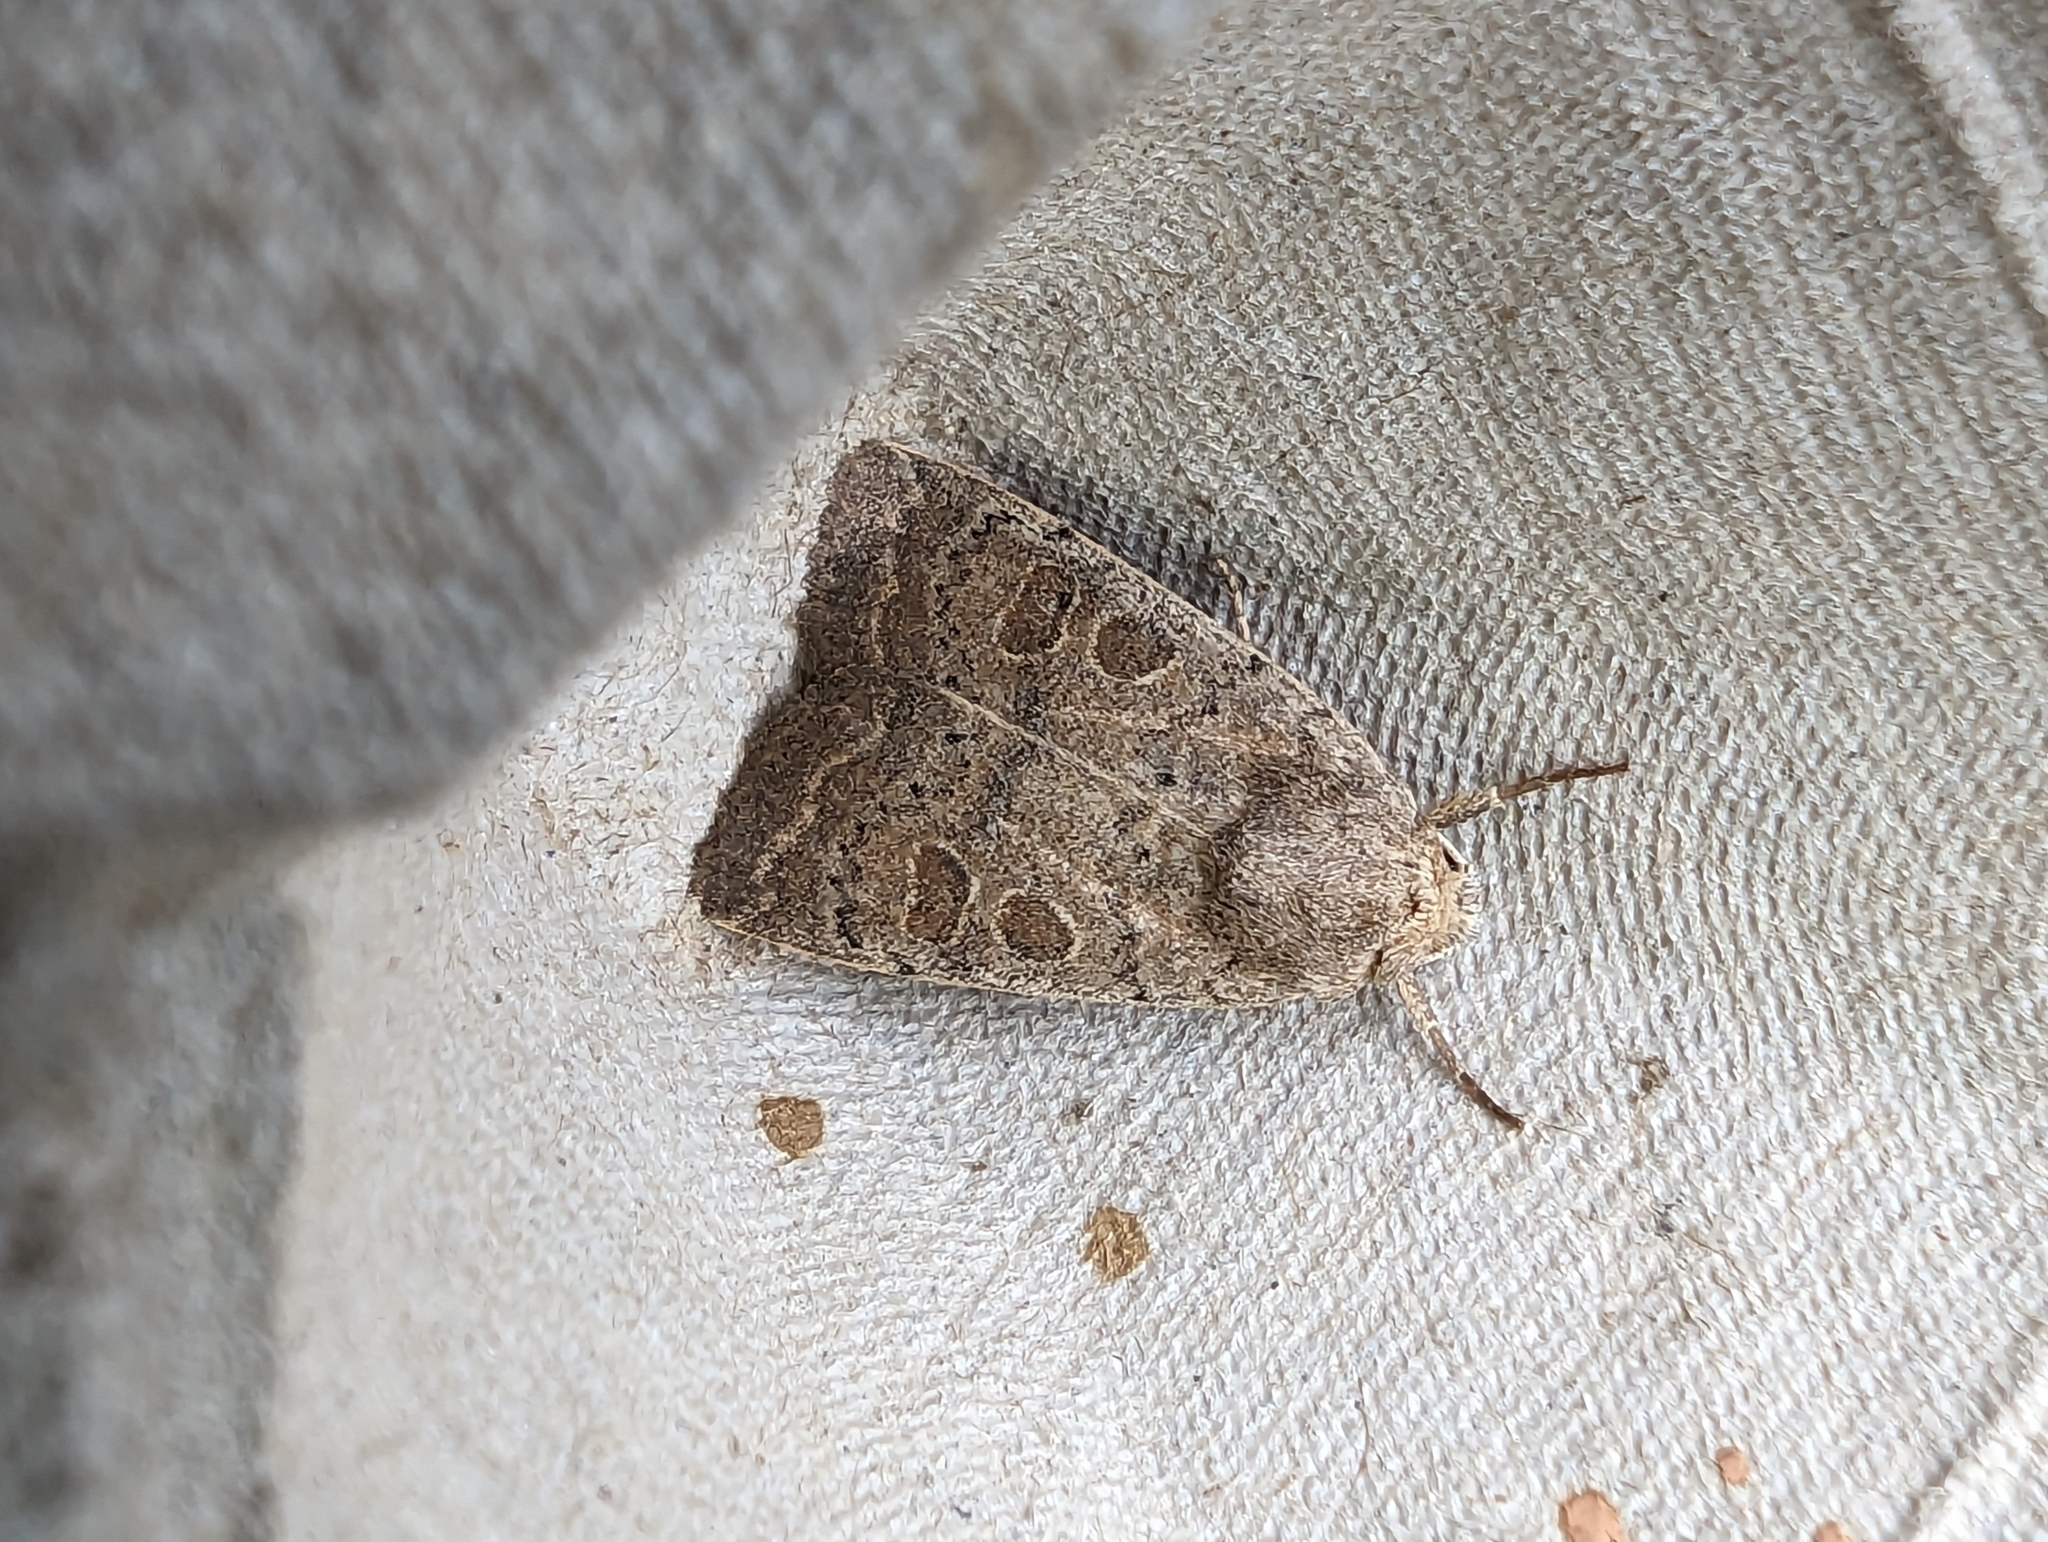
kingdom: Animalia
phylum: Arthropoda
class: Insecta
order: Lepidoptera
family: Noctuidae
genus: Hoplodrina
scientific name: Hoplodrina ambigua
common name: Vine's rustic
